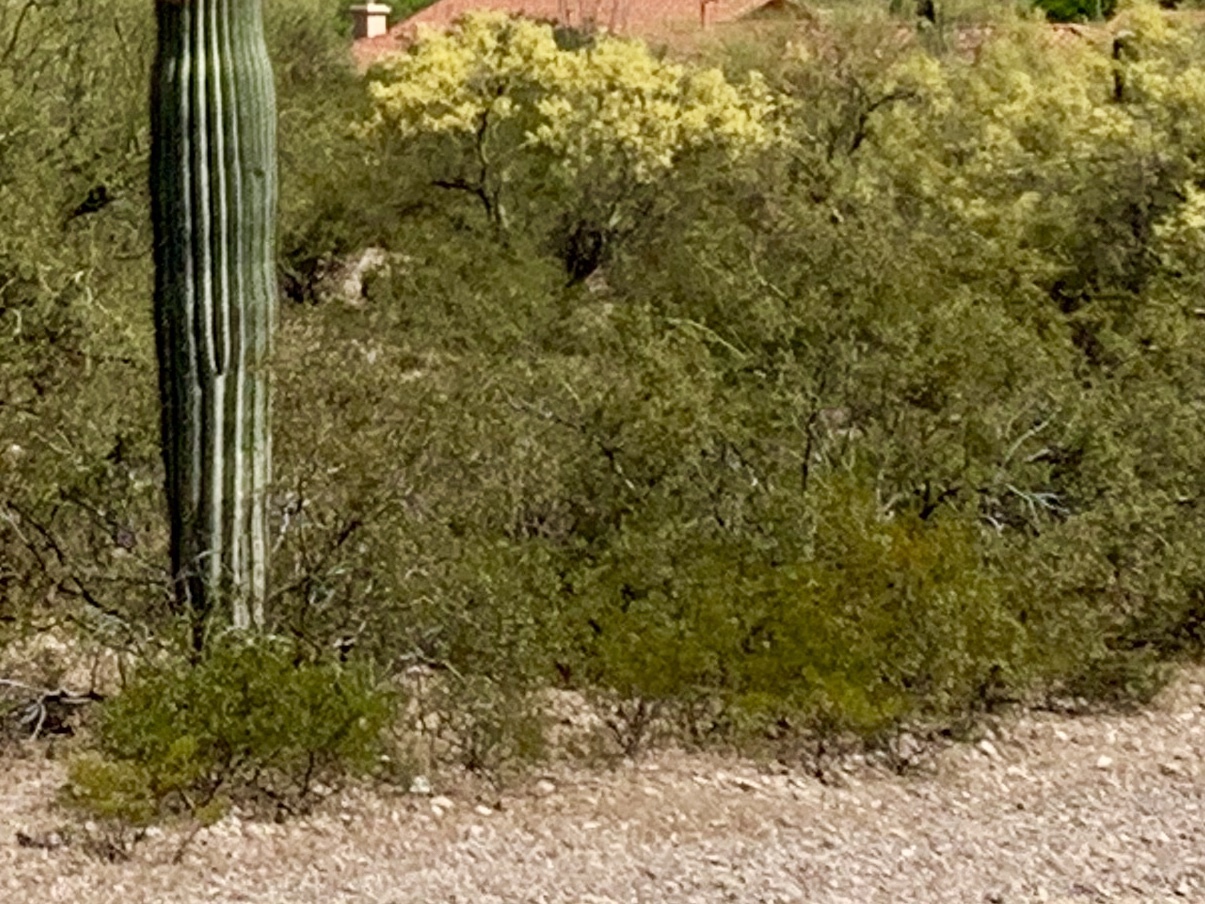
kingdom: Plantae
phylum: Tracheophyta
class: Magnoliopsida
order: Zygophyllales
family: Zygophyllaceae
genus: Larrea
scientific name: Larrea tridentata
